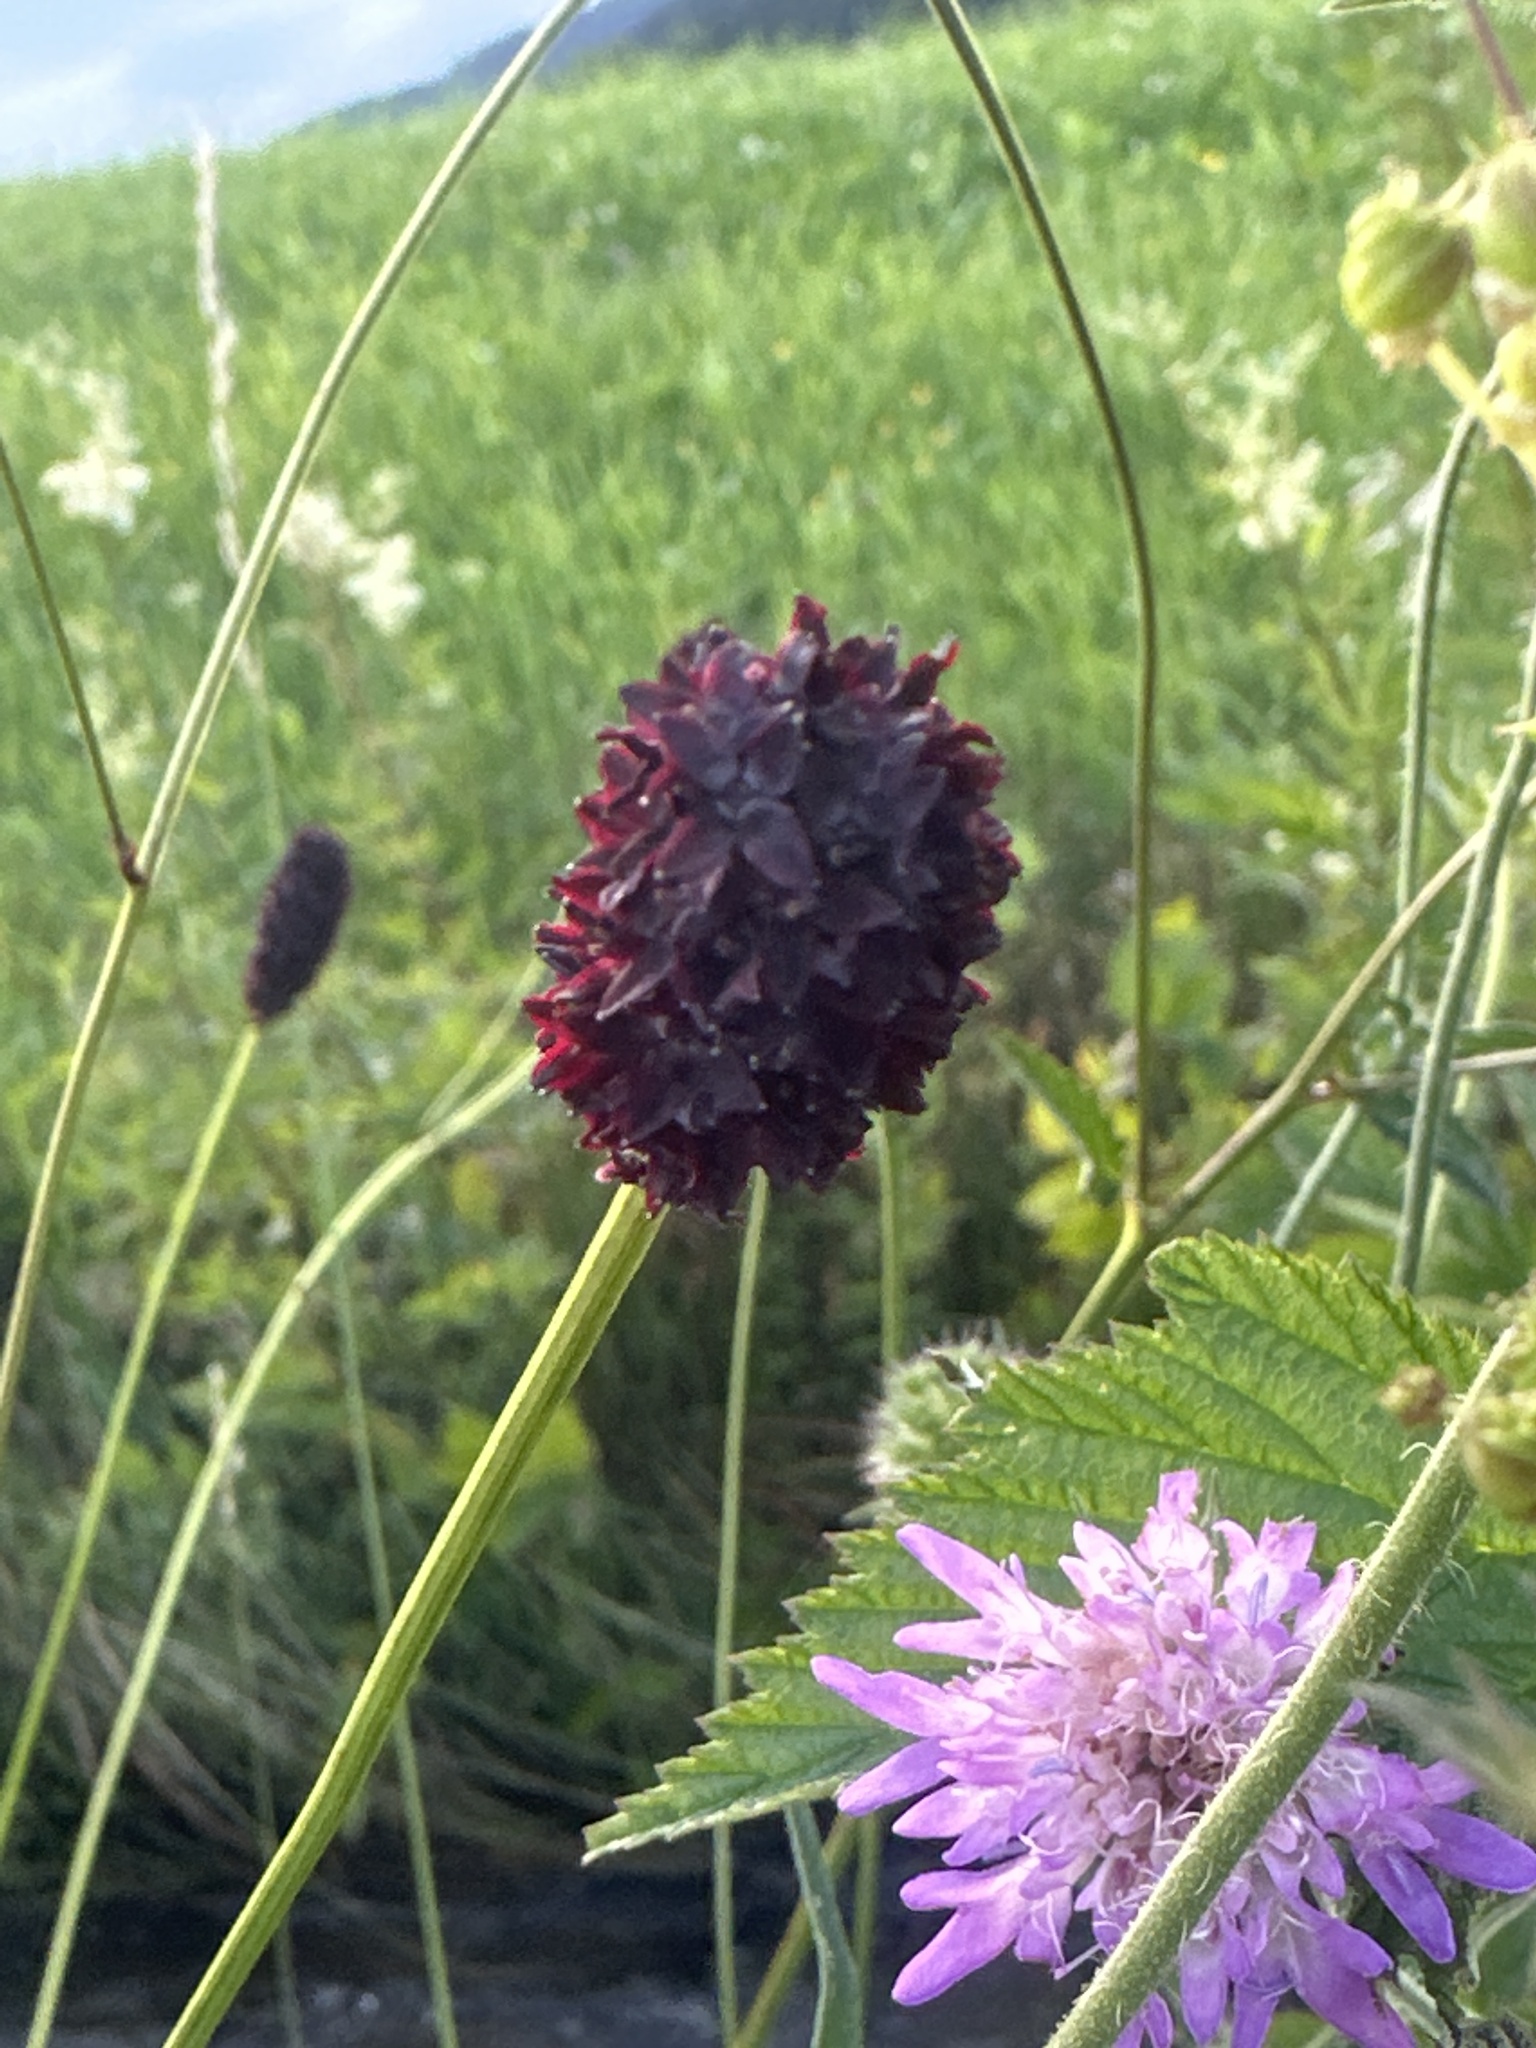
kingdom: Plantae
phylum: Tracheophyta
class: Magnoliopsida
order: Rosales
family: Rosaceae
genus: Sanguisorba
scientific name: Sanguisorba officinalis
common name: Great burnet
